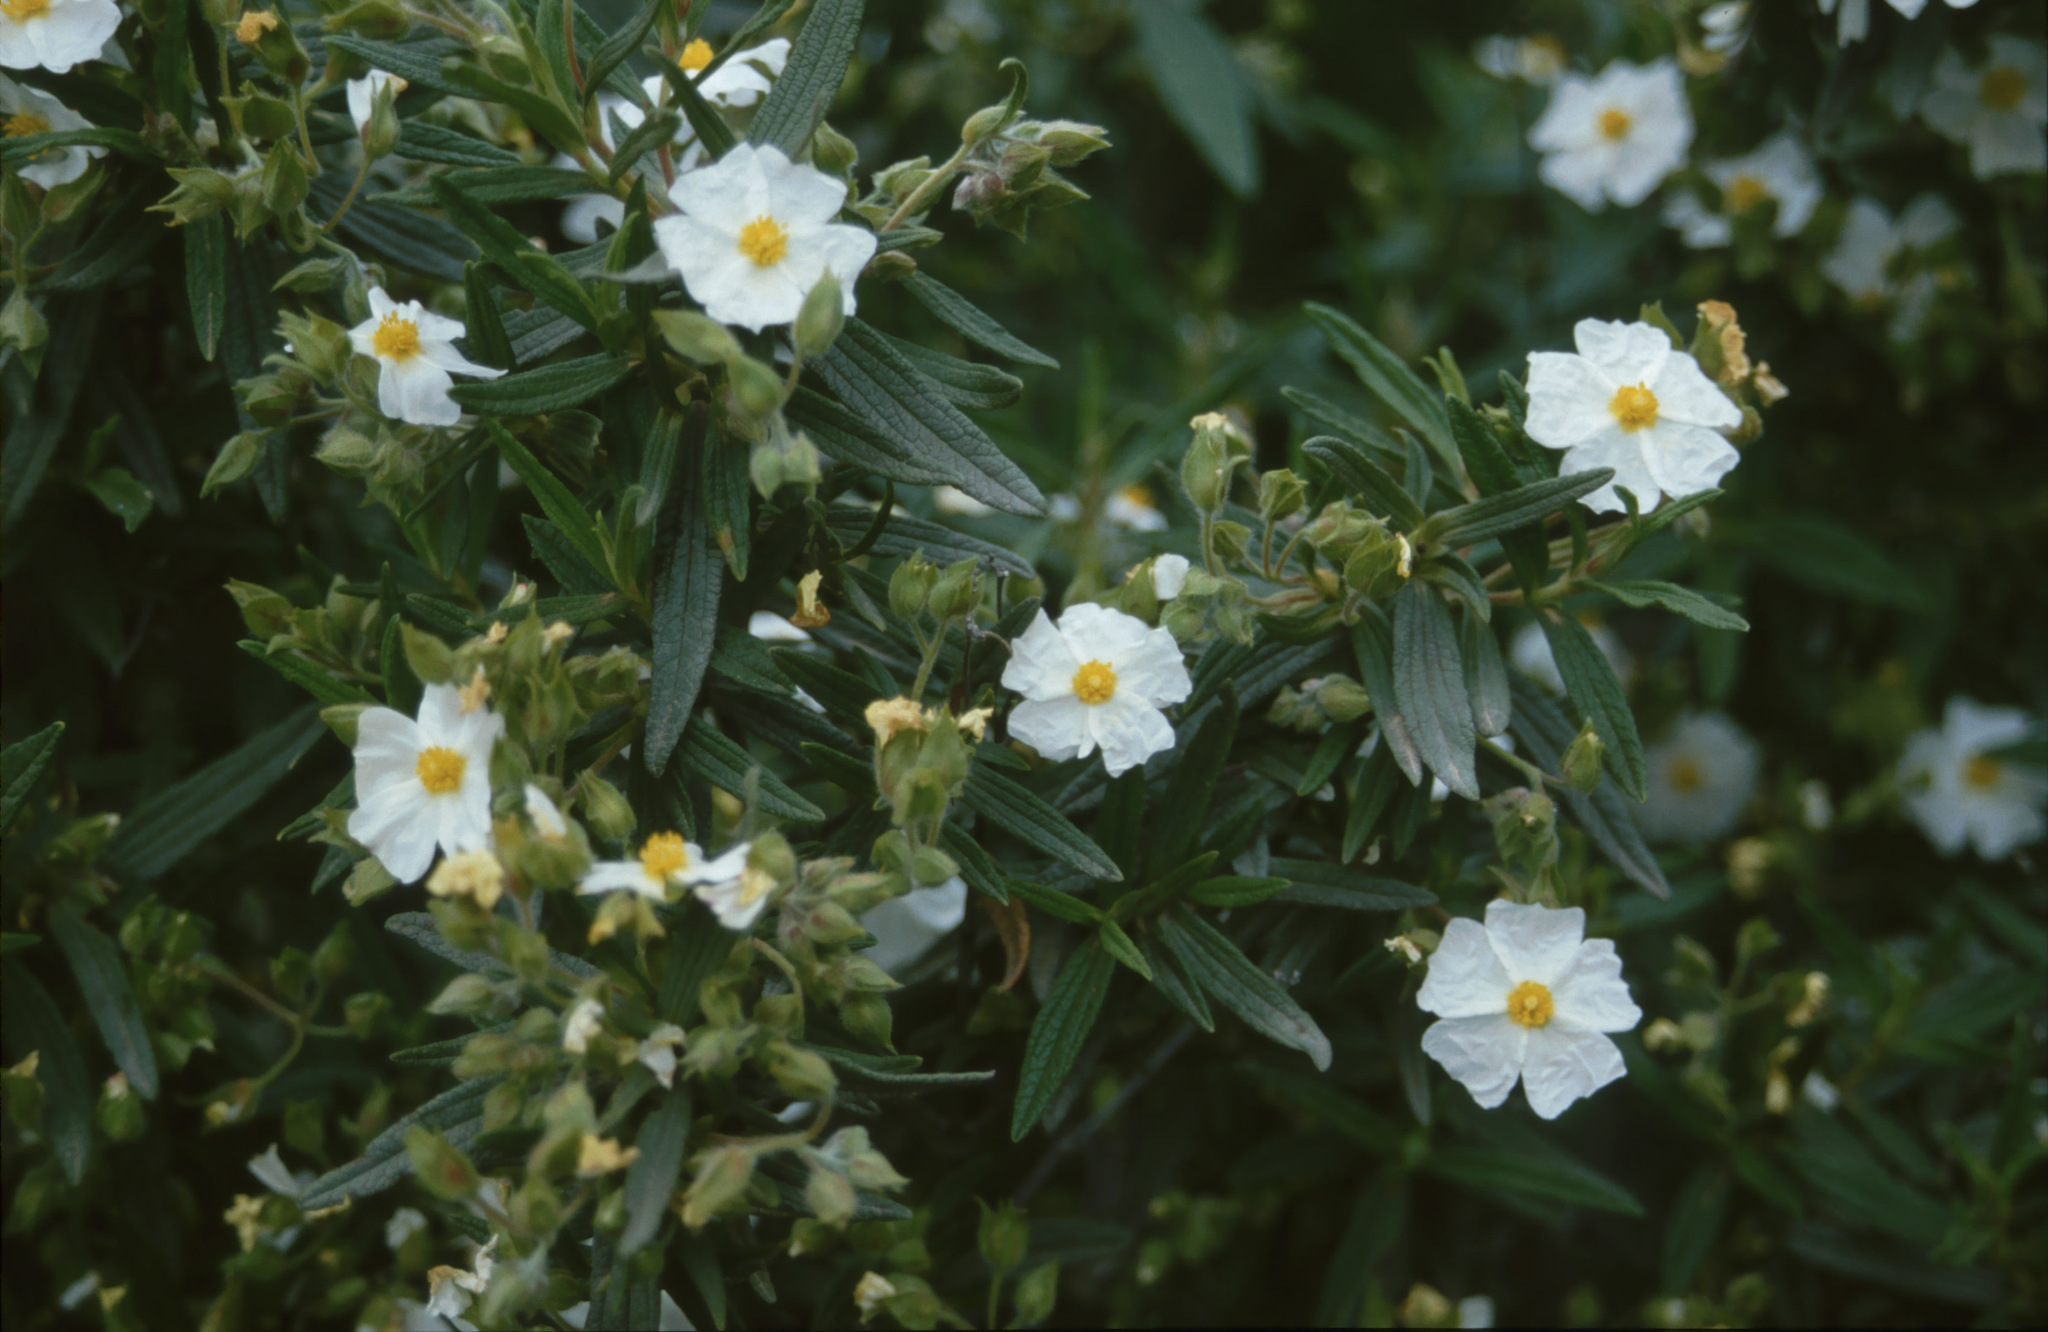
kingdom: Plantae
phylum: Tracheophyta
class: Magnoliopsida
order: Malvales
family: Cistaceae
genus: Cistus
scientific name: Cistus monspeliensis
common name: Montpelier cistus
